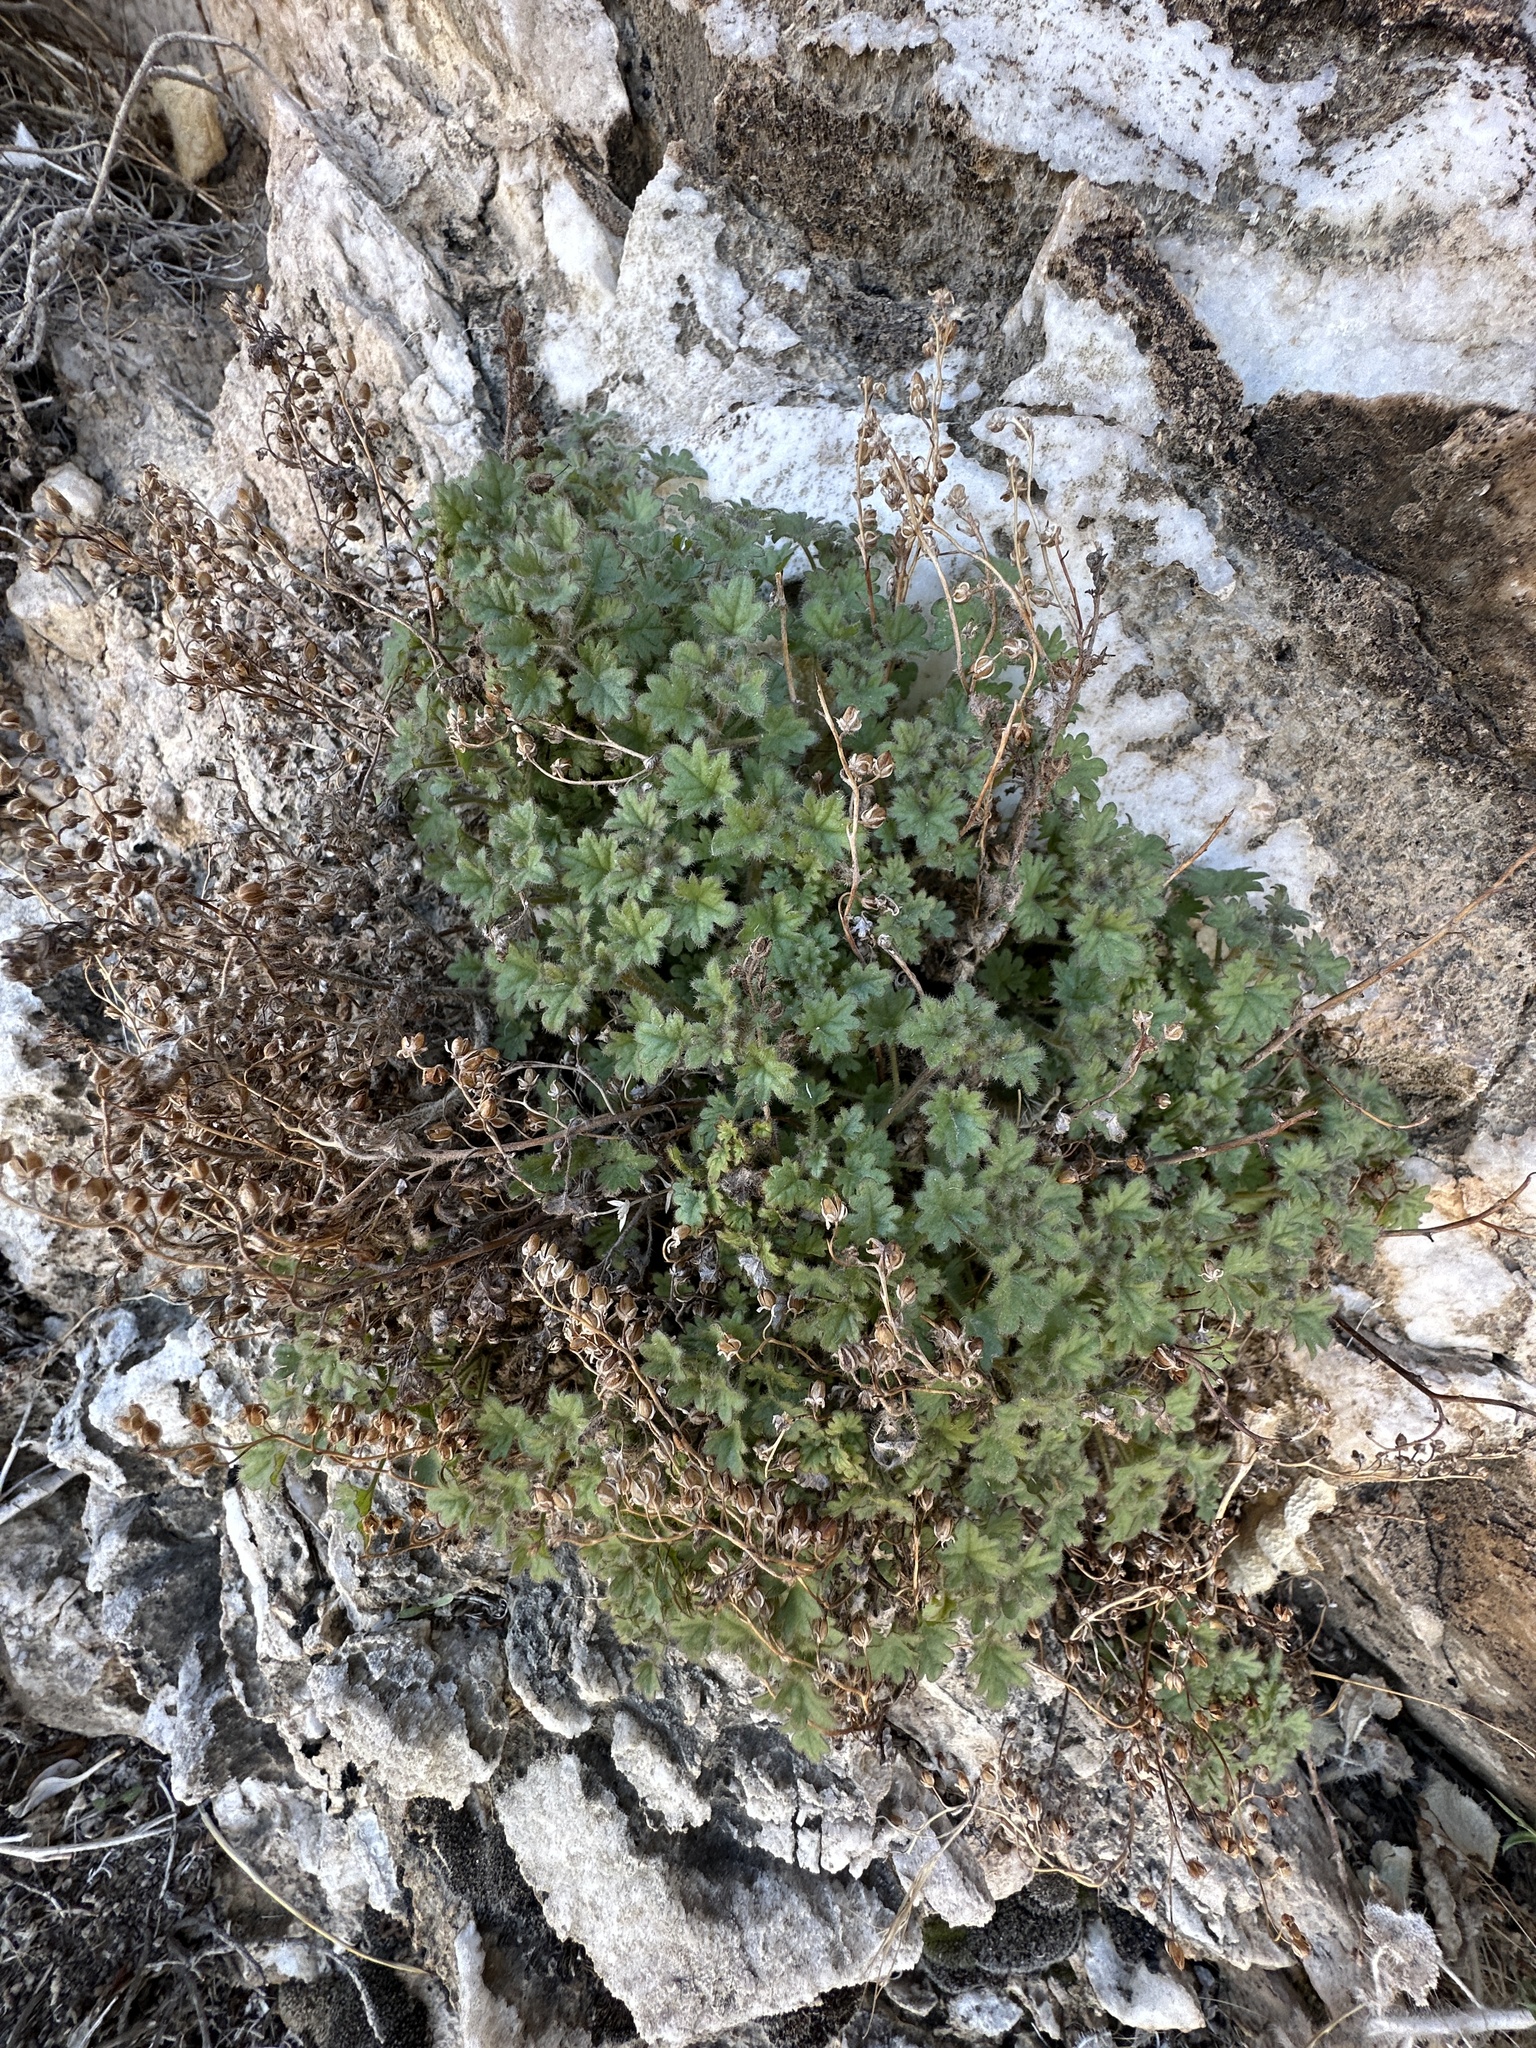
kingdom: Plantae
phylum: Tracheophyta
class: Magnoliopsida
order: Boraginales
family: Hydrophyllaceae
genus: Phacelia
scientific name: Phacelia perityloides
